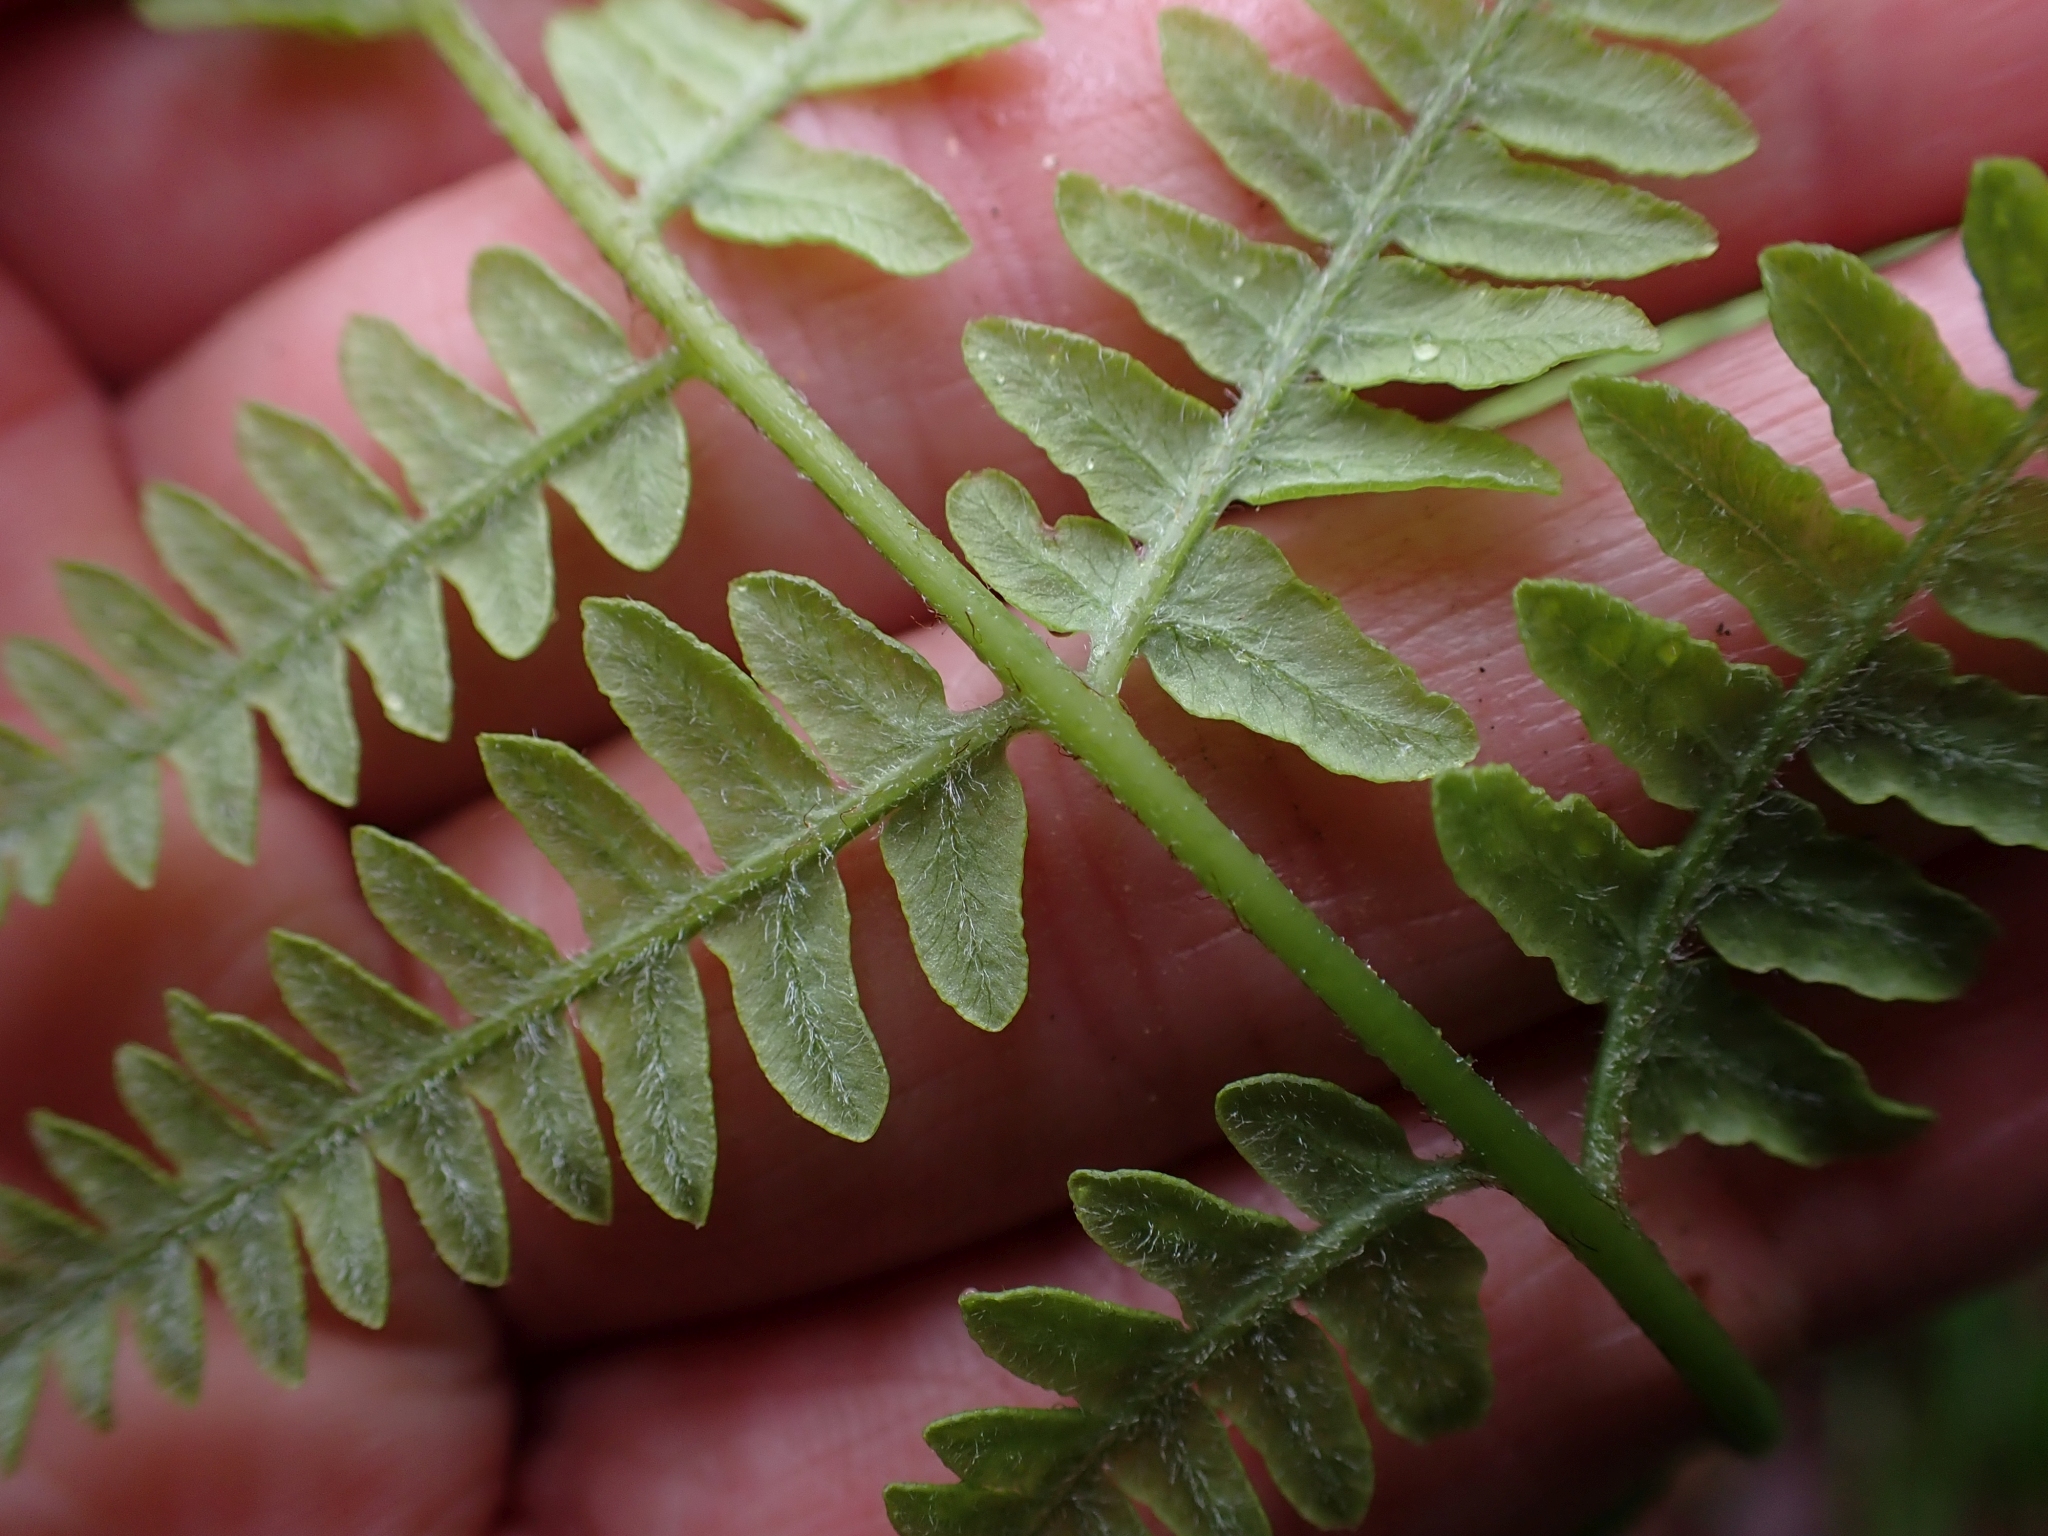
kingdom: Plantae
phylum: Tracheophyta
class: Polypodiopsida
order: Polypodiales
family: Dennstaedtiaceae
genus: Pteridium
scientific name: Pteridium aquilinum
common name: Bracken
